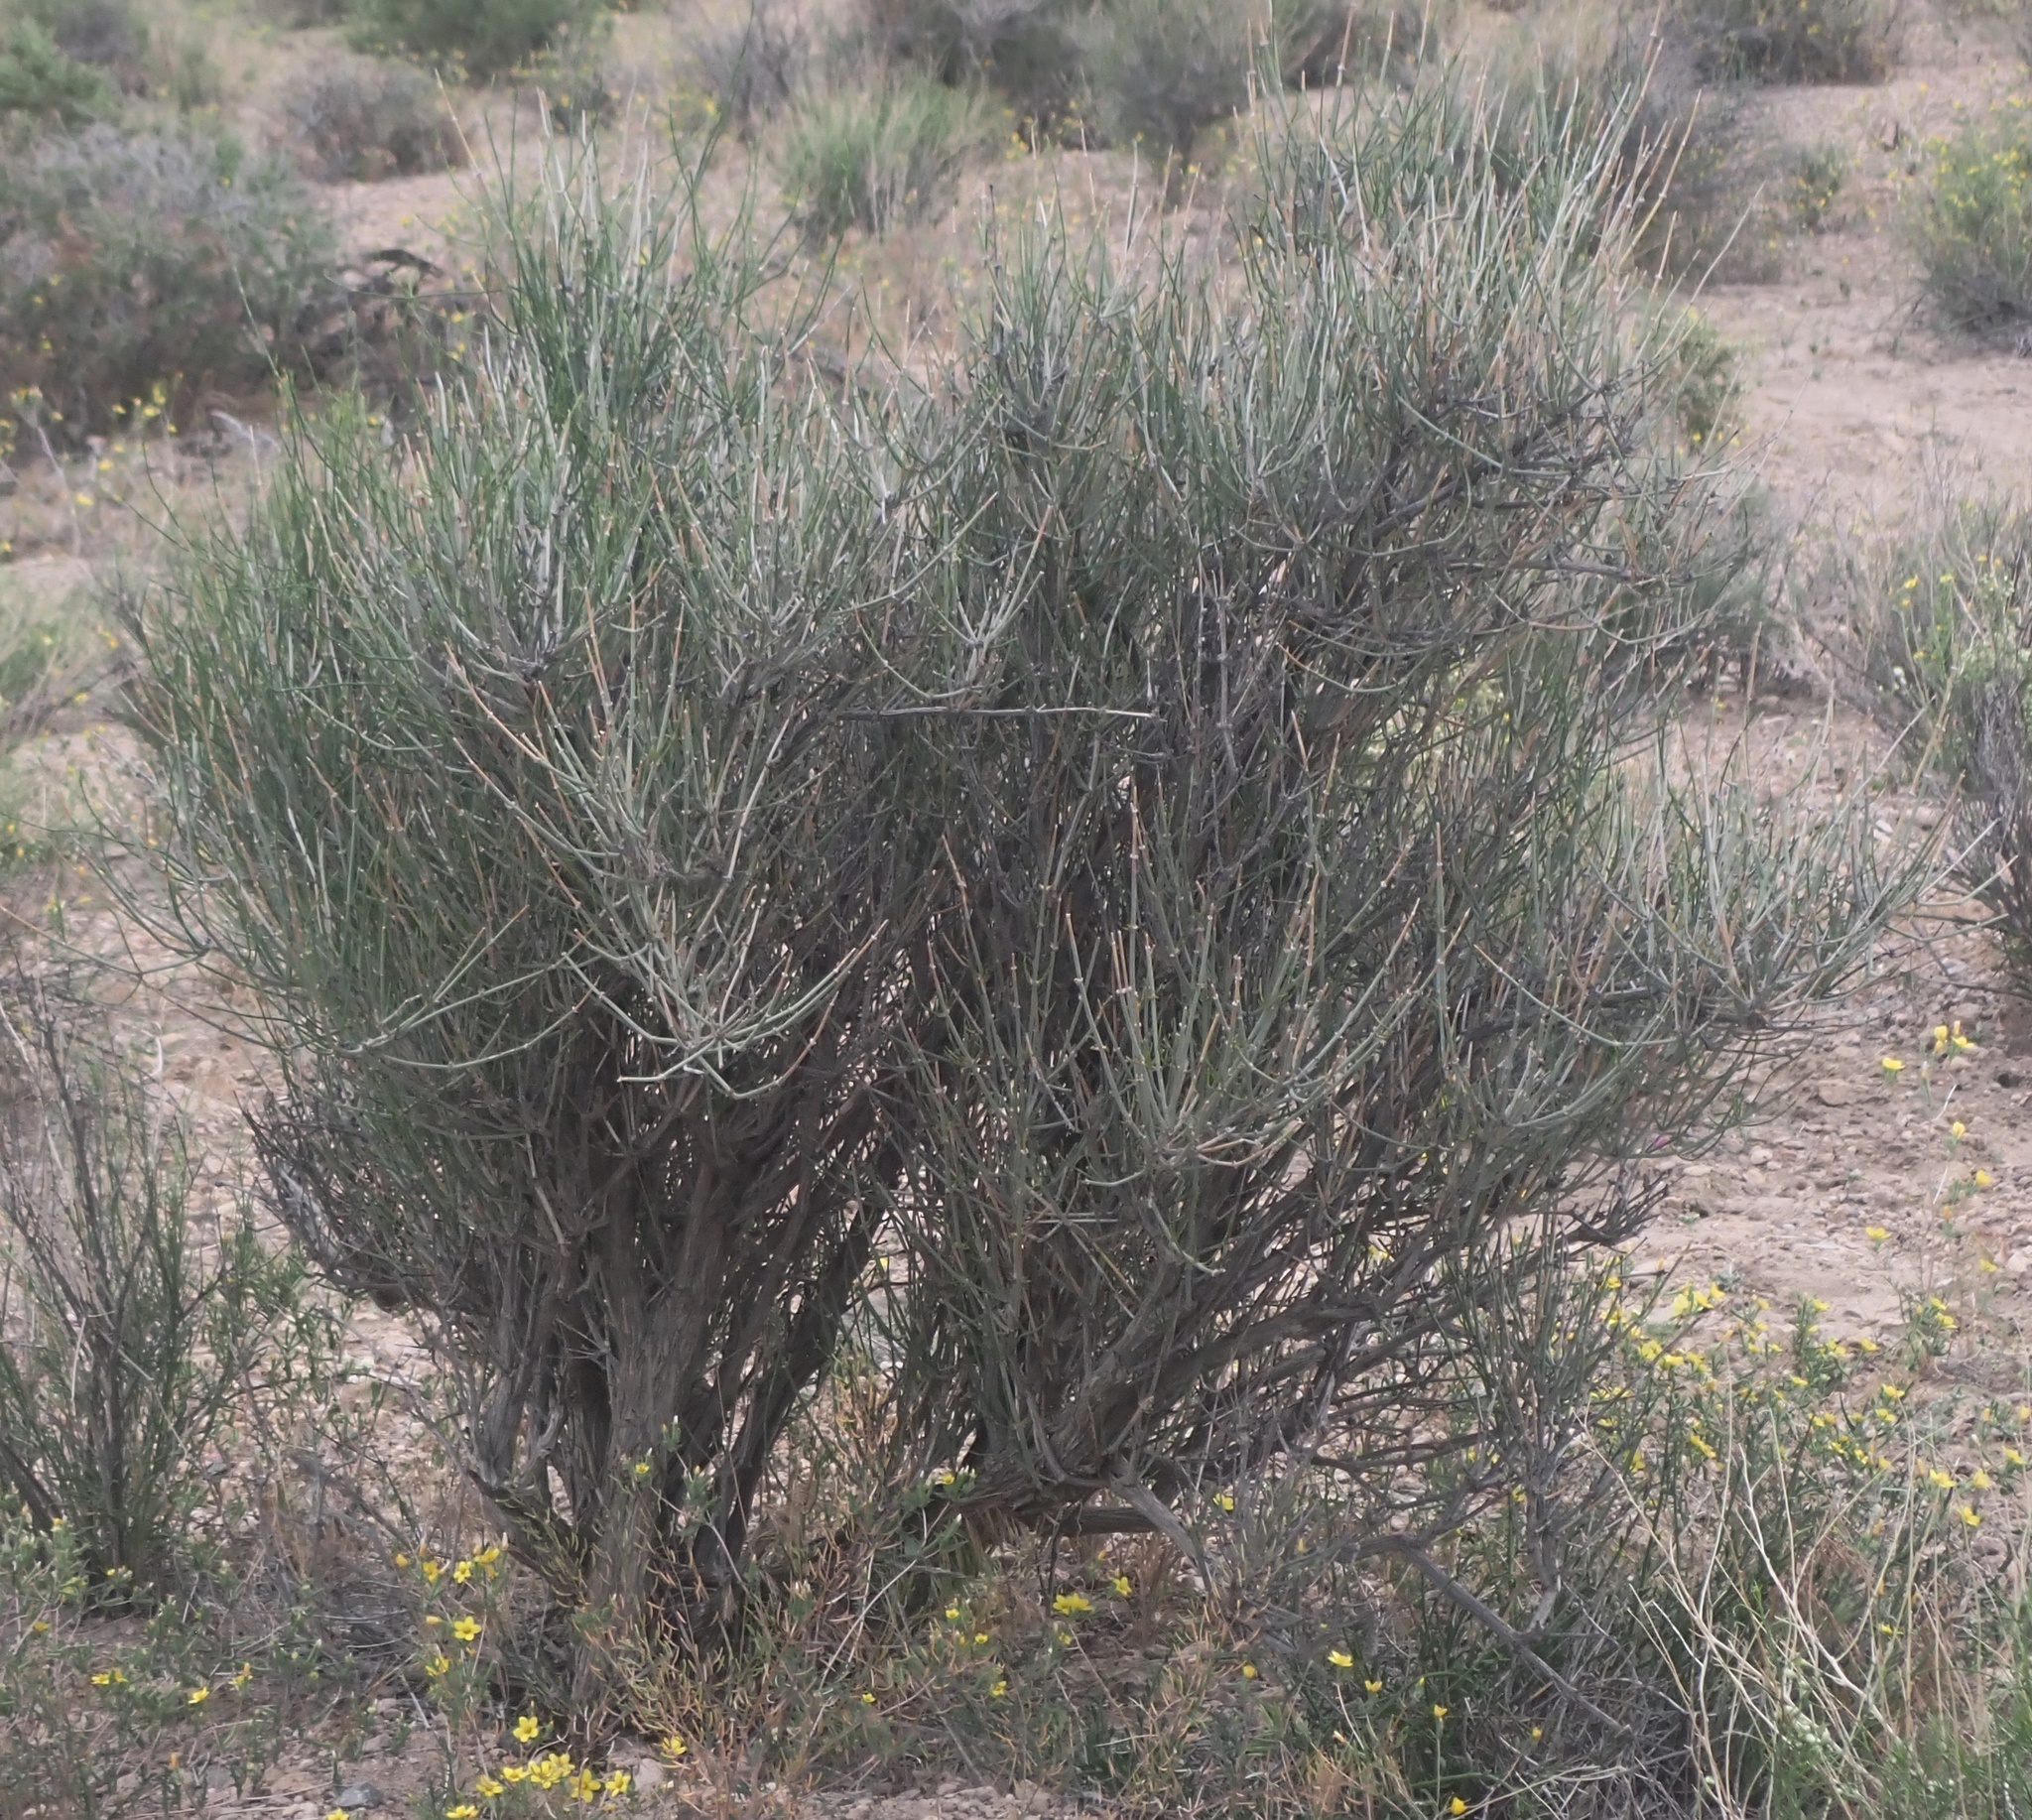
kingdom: Plantae
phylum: Tracheophyta
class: Gnetopsida
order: Ephedrales
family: Ephedraceae
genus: Ephedra
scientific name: Ephedra nevadensis
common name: Gray ephedra
